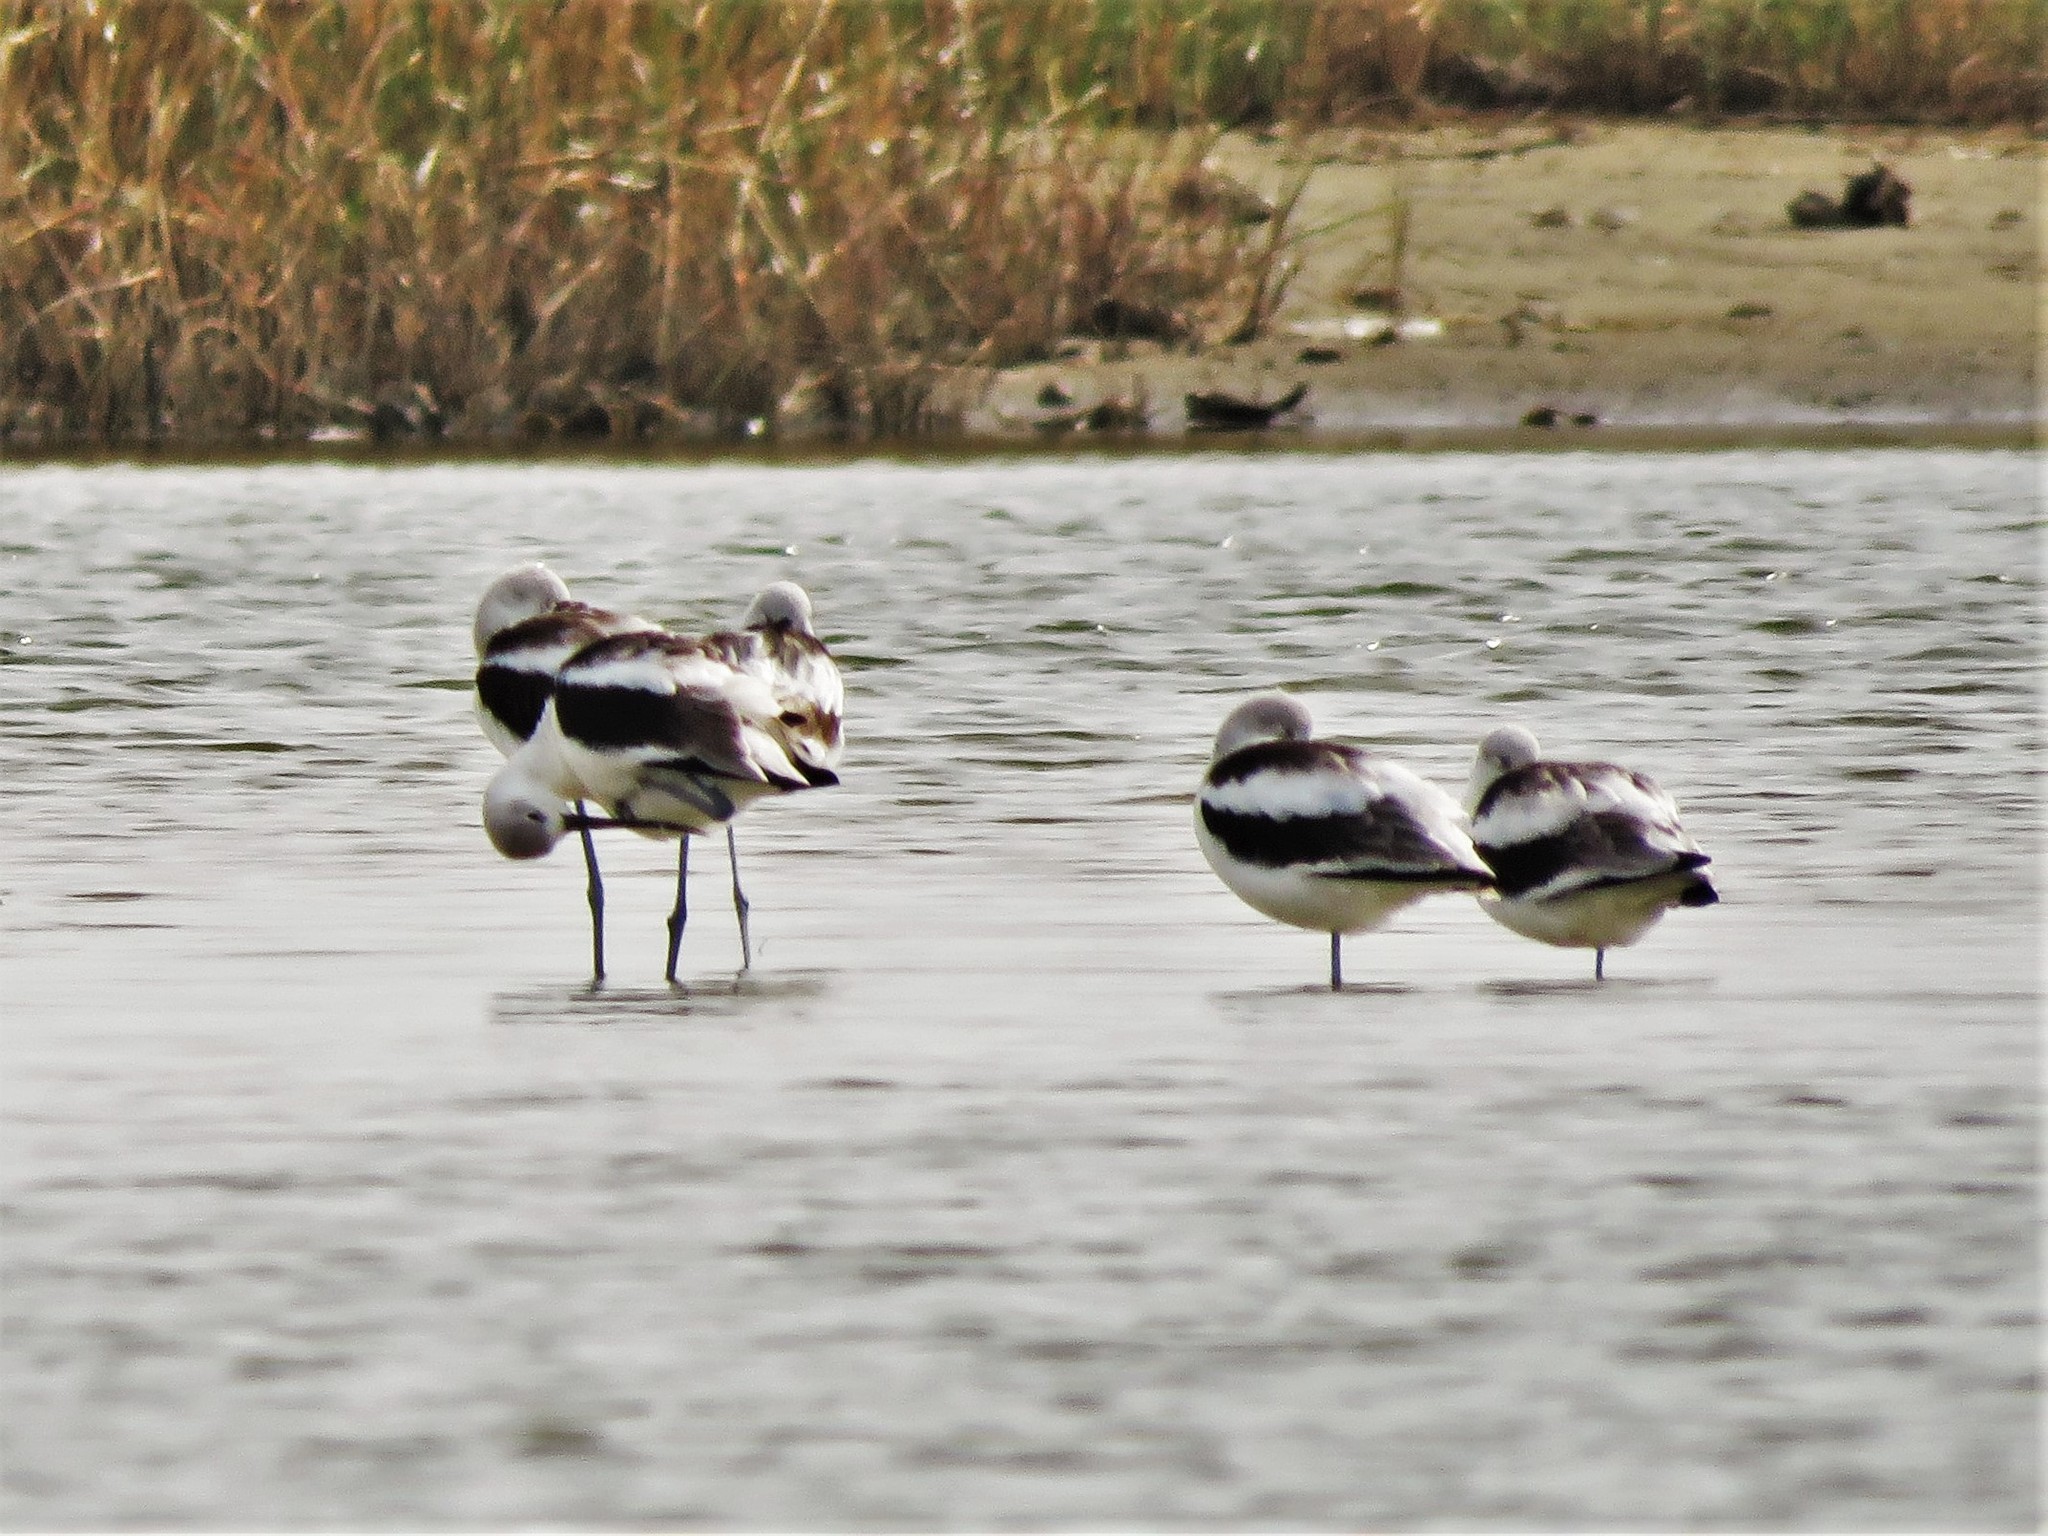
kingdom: Animalia
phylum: Chordata
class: Aves
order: Charadriiformes
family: Recurvirostridae
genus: Recurvirostra
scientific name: Recurvirostra americana
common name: American avocet
